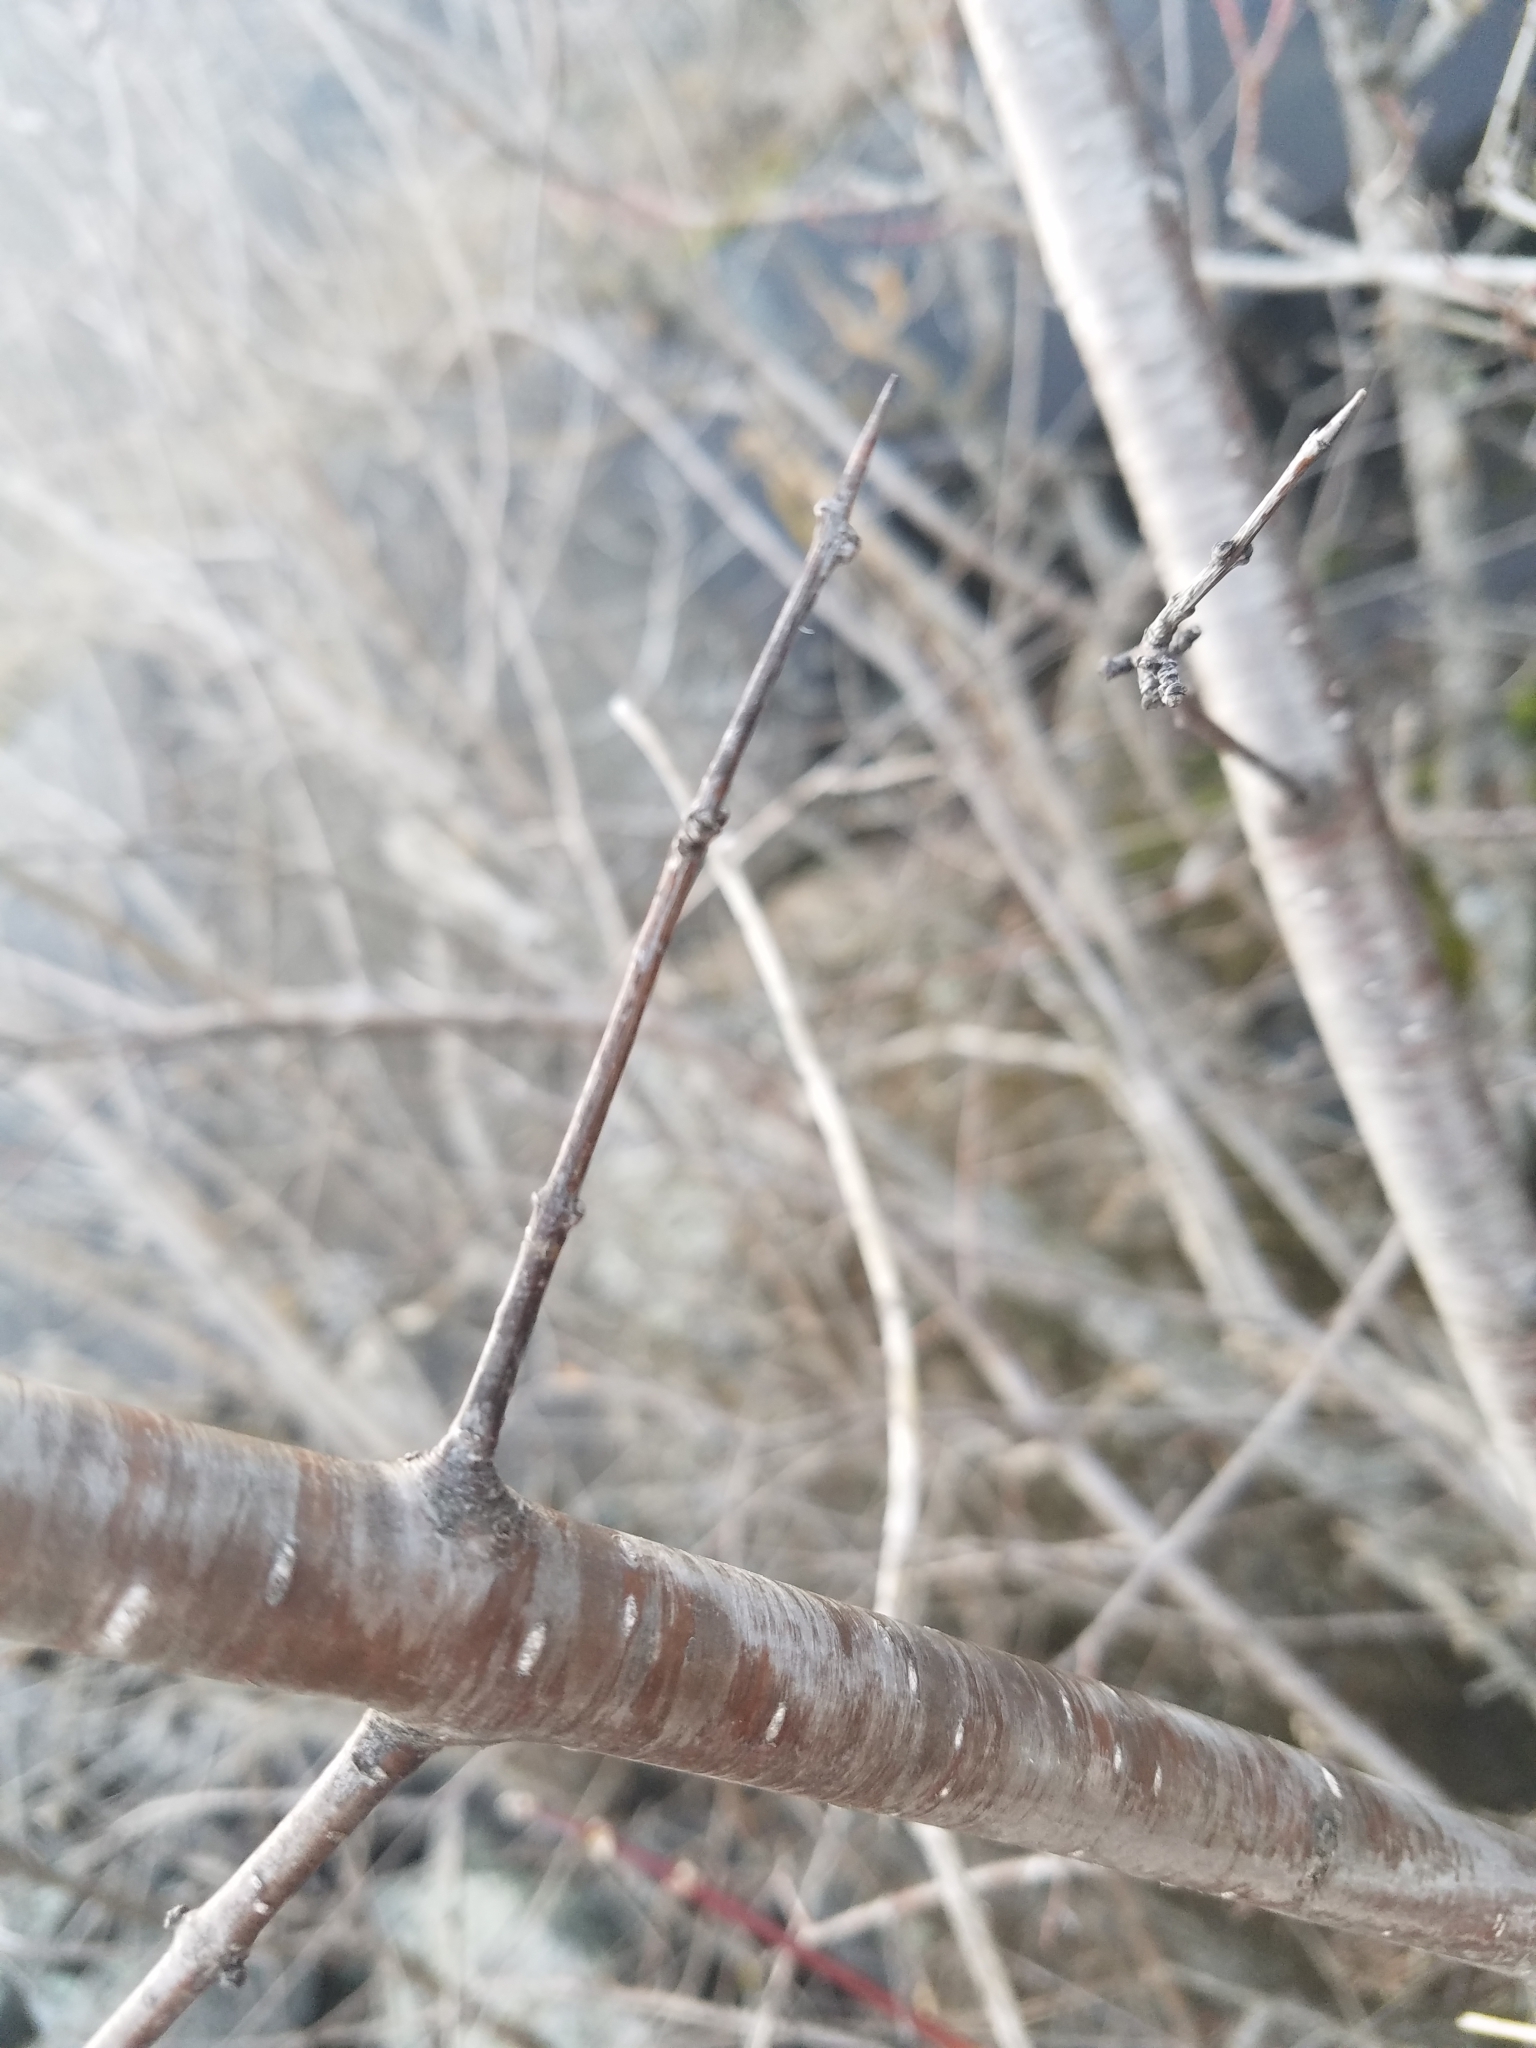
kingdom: Plantae
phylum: Tracheophyta
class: Magnoliopsida
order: Rosales
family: Rhamnaceae
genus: Rhamnus
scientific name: Rhamnus cathartica
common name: Common buckthorn
